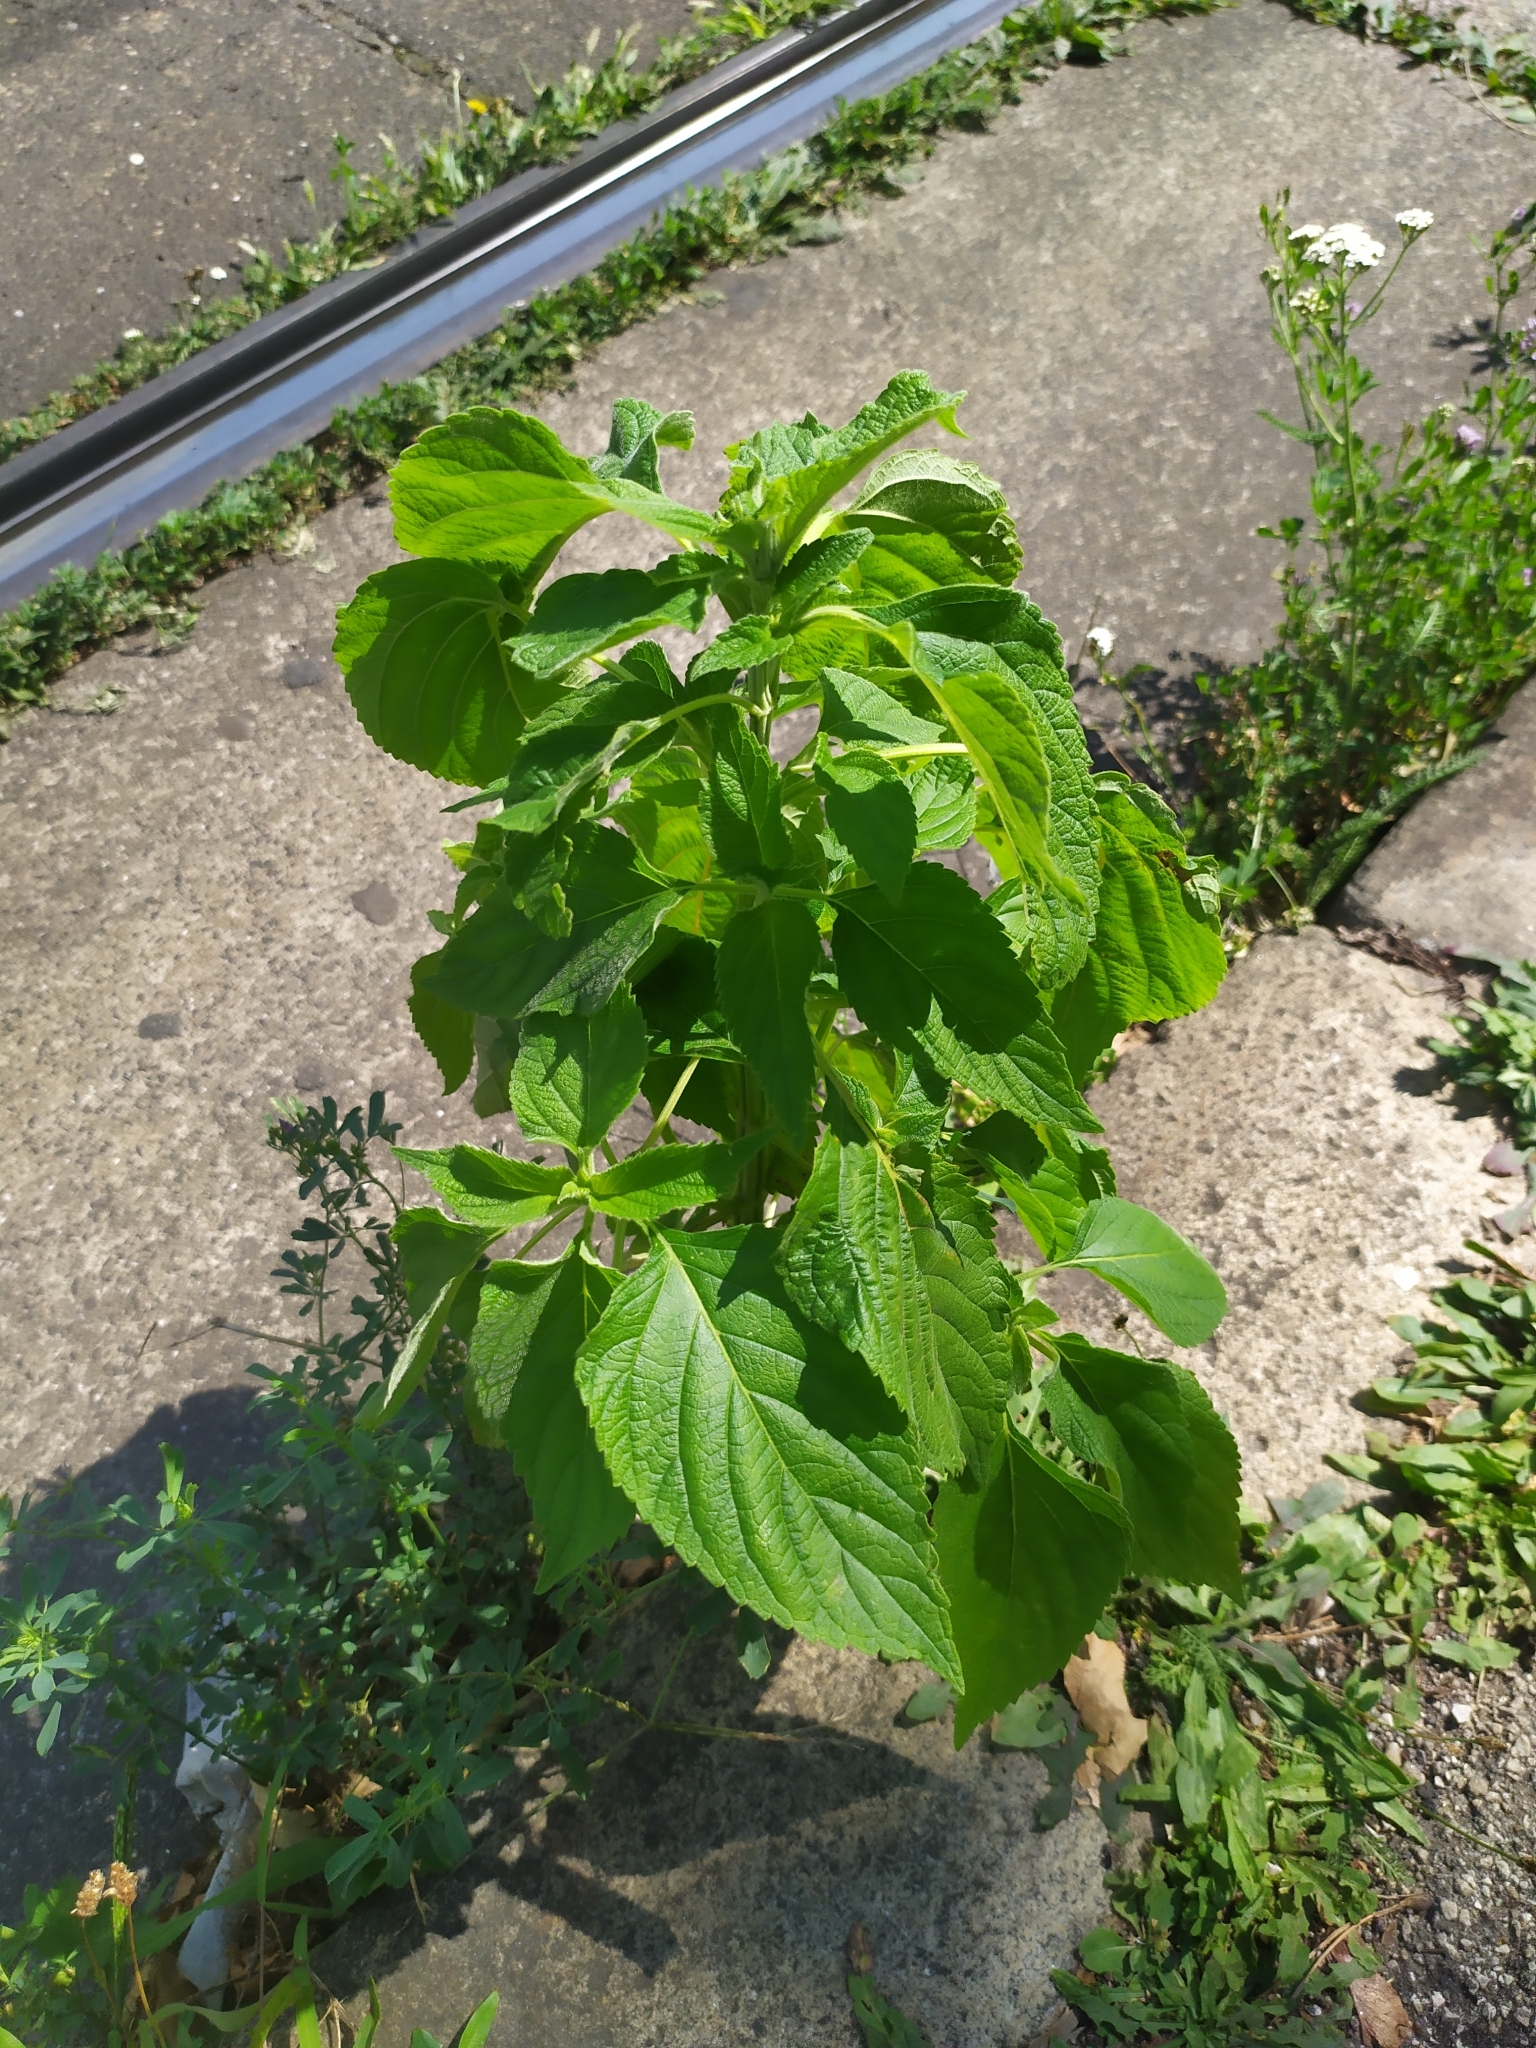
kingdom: Plantae
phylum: Tracheophyta
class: Magnoliopsida
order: Lamiales
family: Lamiaceae
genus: Salvia
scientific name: Salvia hispanica
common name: Chia
